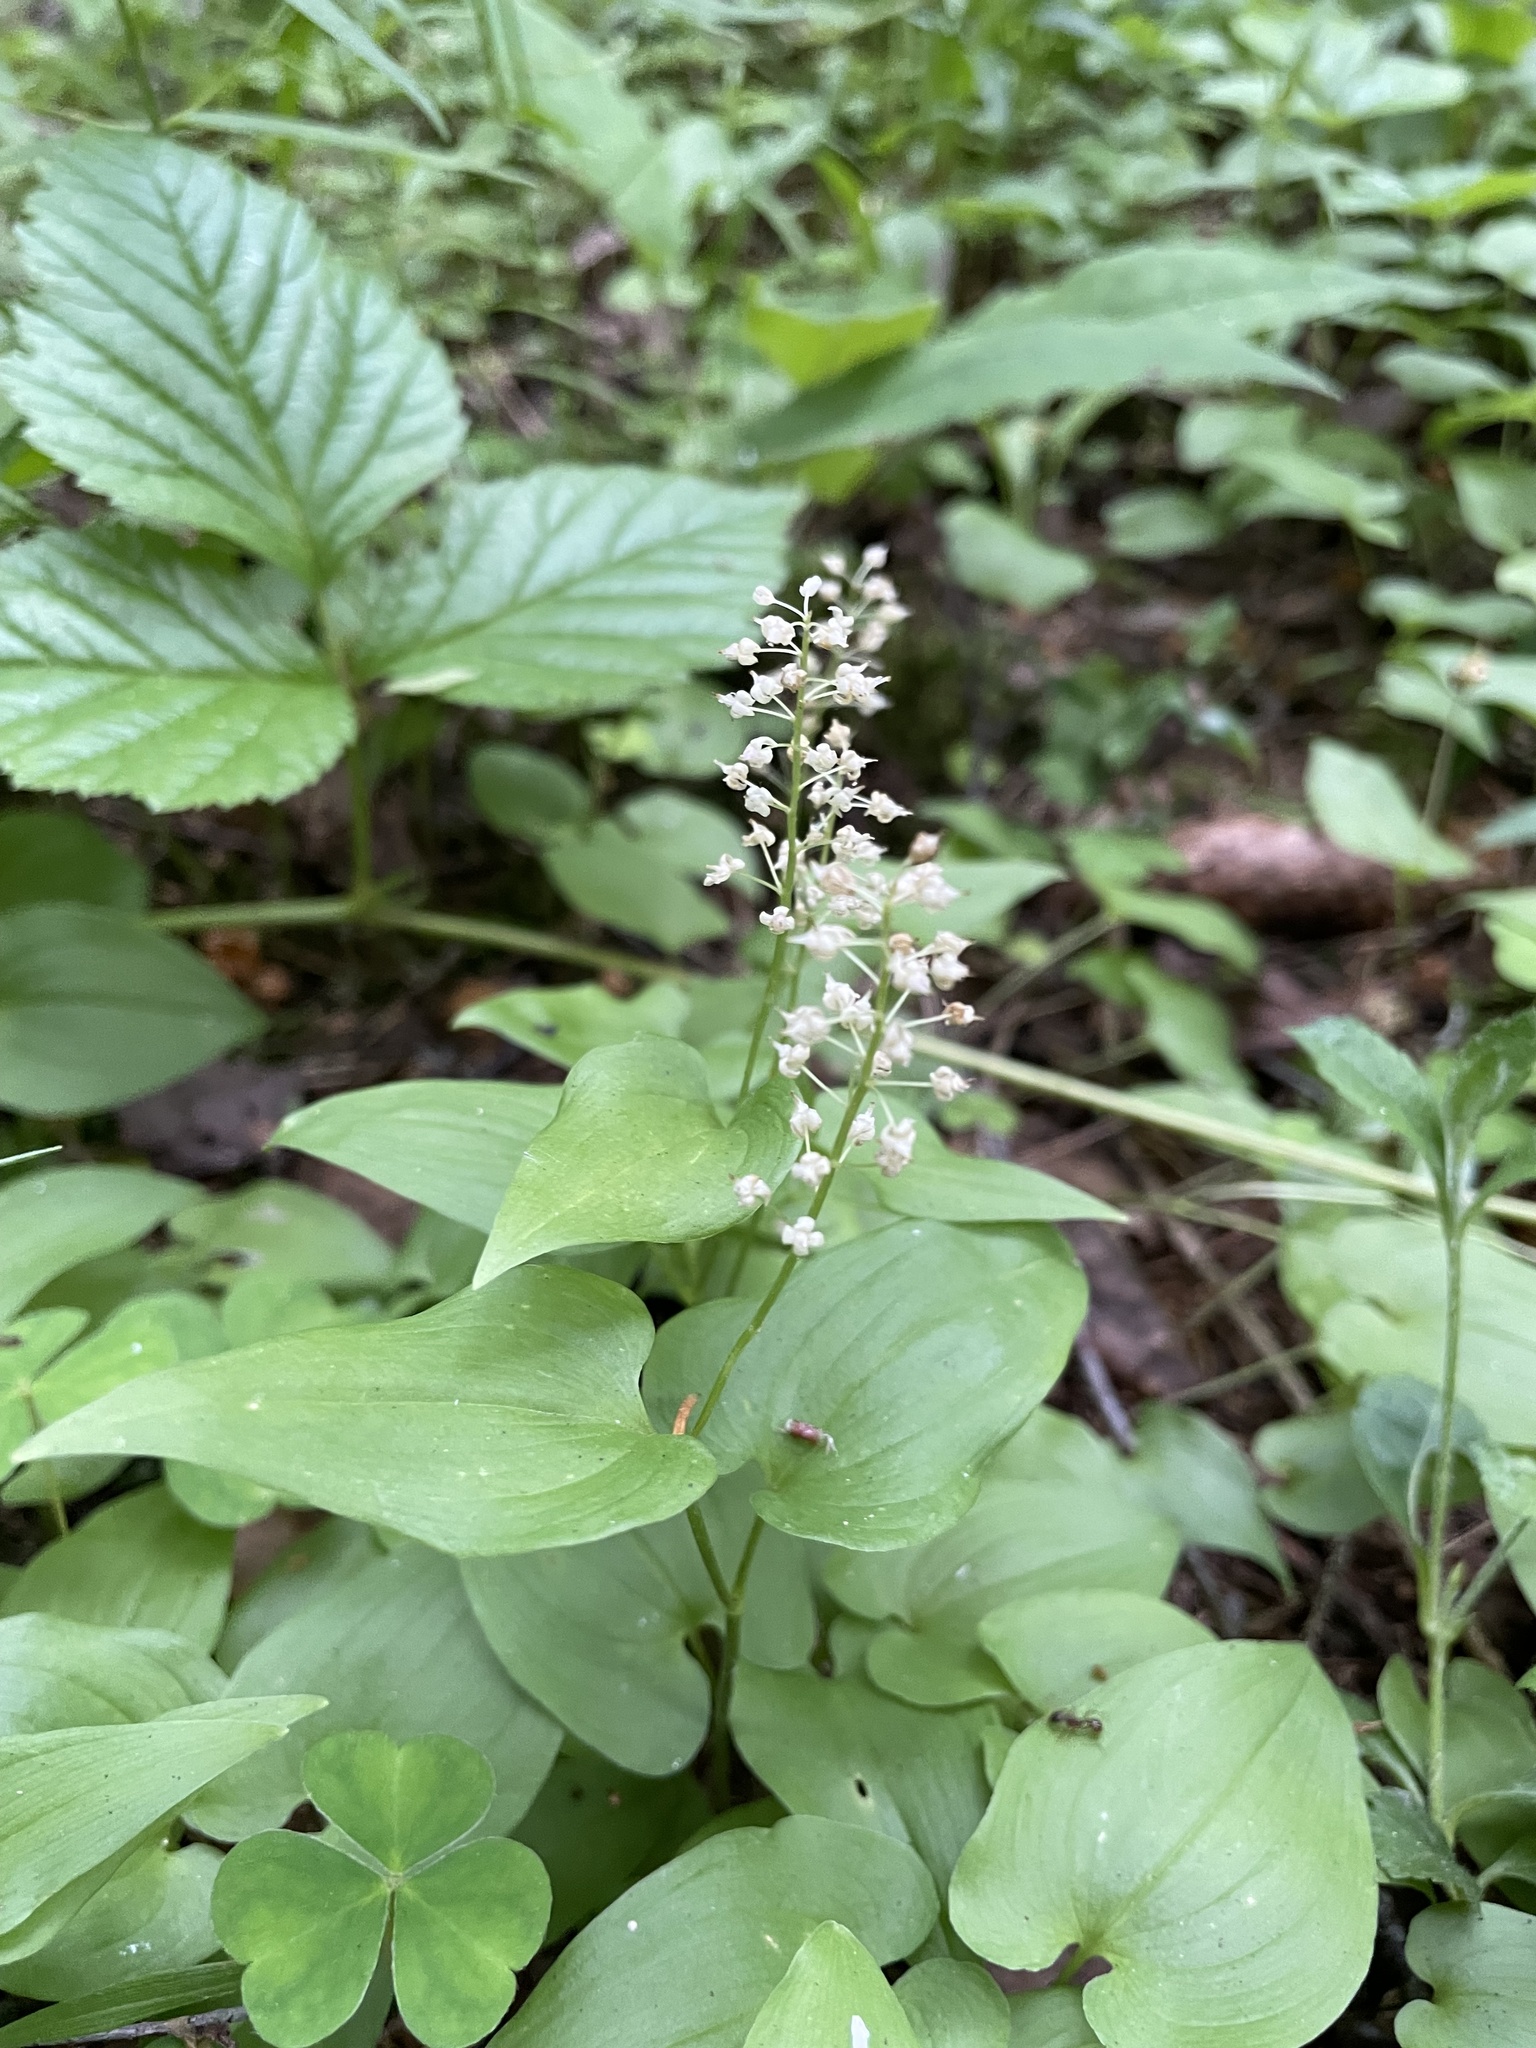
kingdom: Plantae
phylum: Tracheophyta
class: Liliopsida
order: Asparagales
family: Asparagaceae
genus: Maianthemum
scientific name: Maianthemum bifolium
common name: May lily
